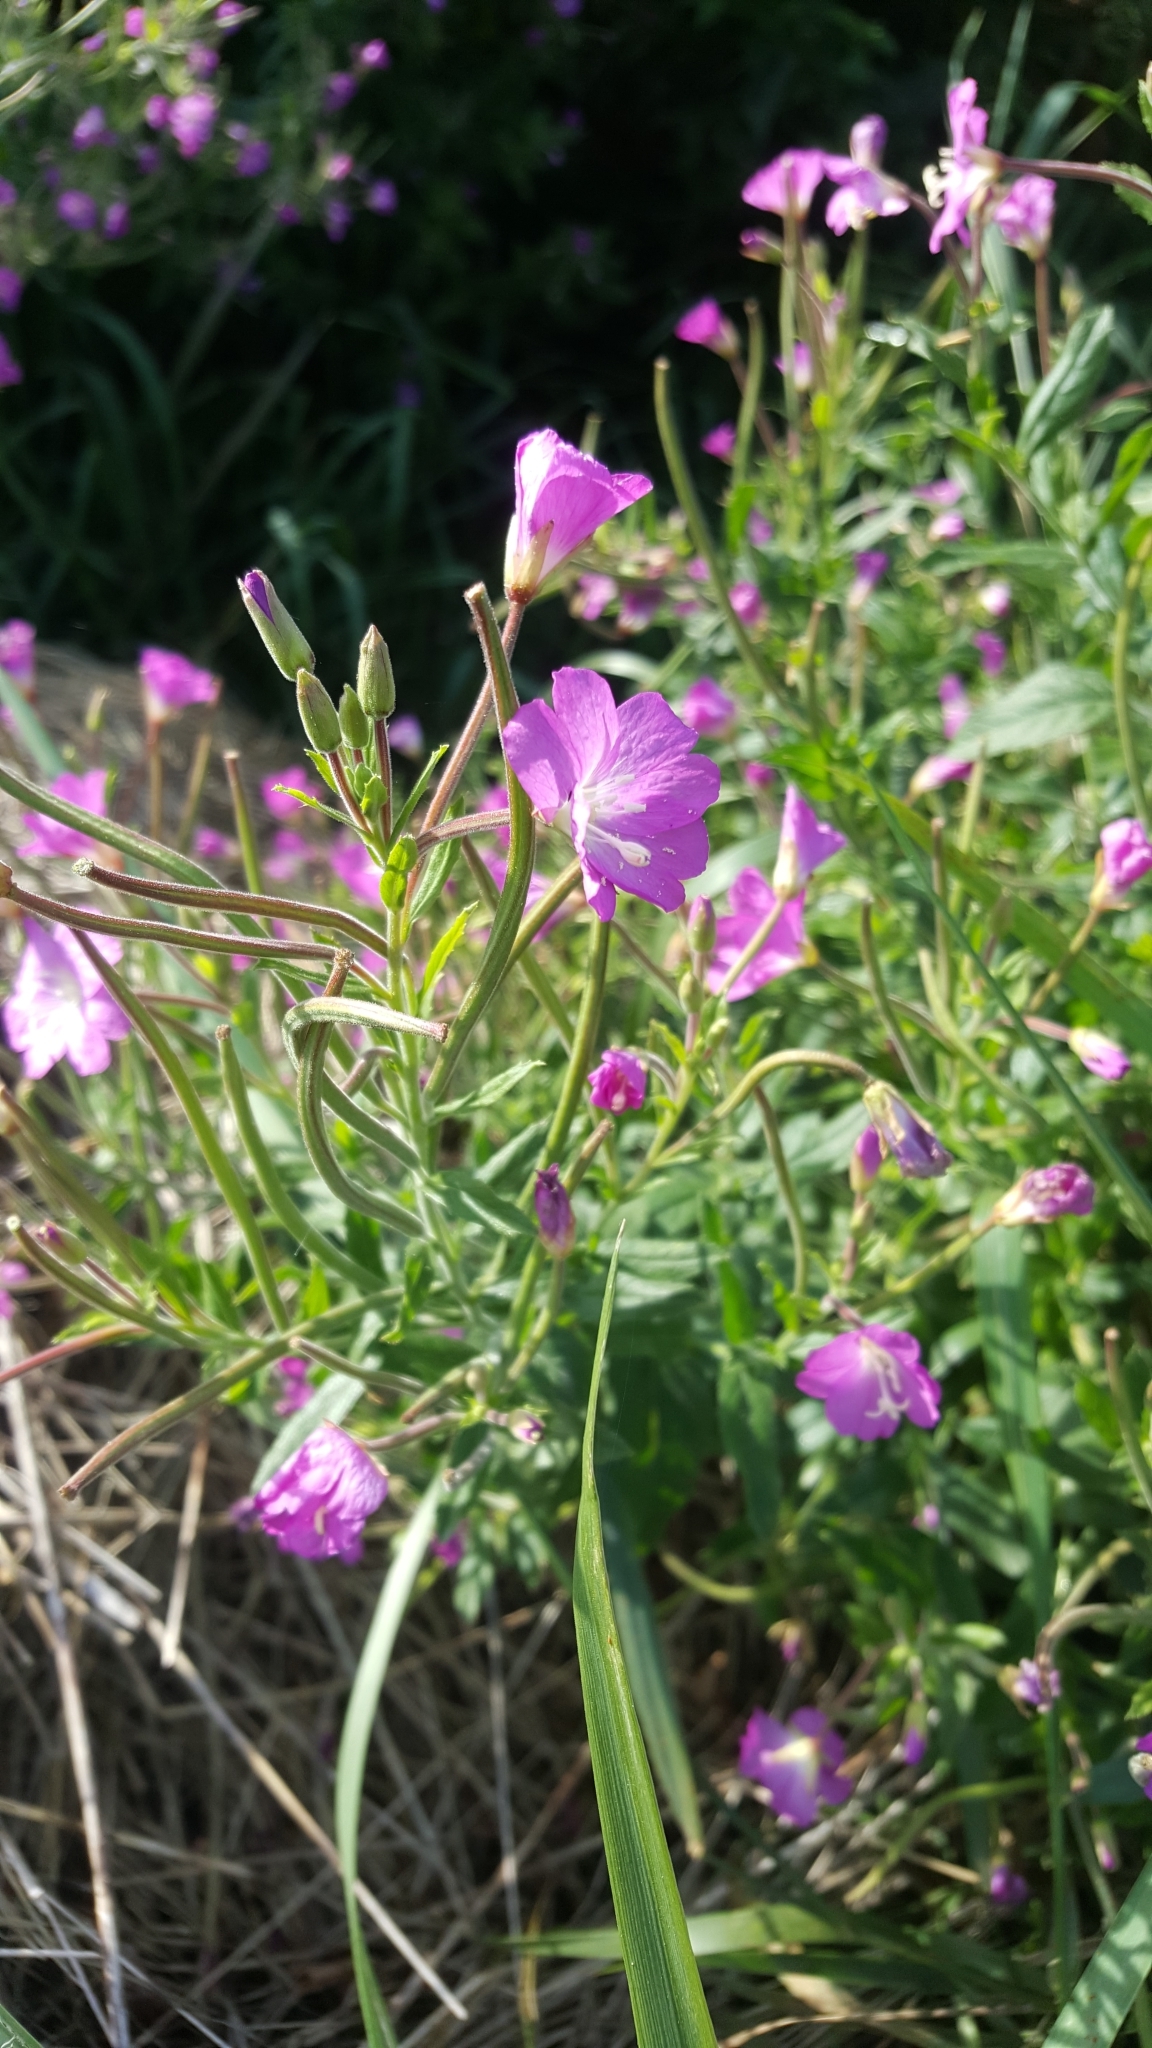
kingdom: Plantae
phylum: Tracheophyta
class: Magnoliopsida
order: Myrtales
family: Onagraceae
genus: Epilobium
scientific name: Epilobium hirsutum
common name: Great willowherb
